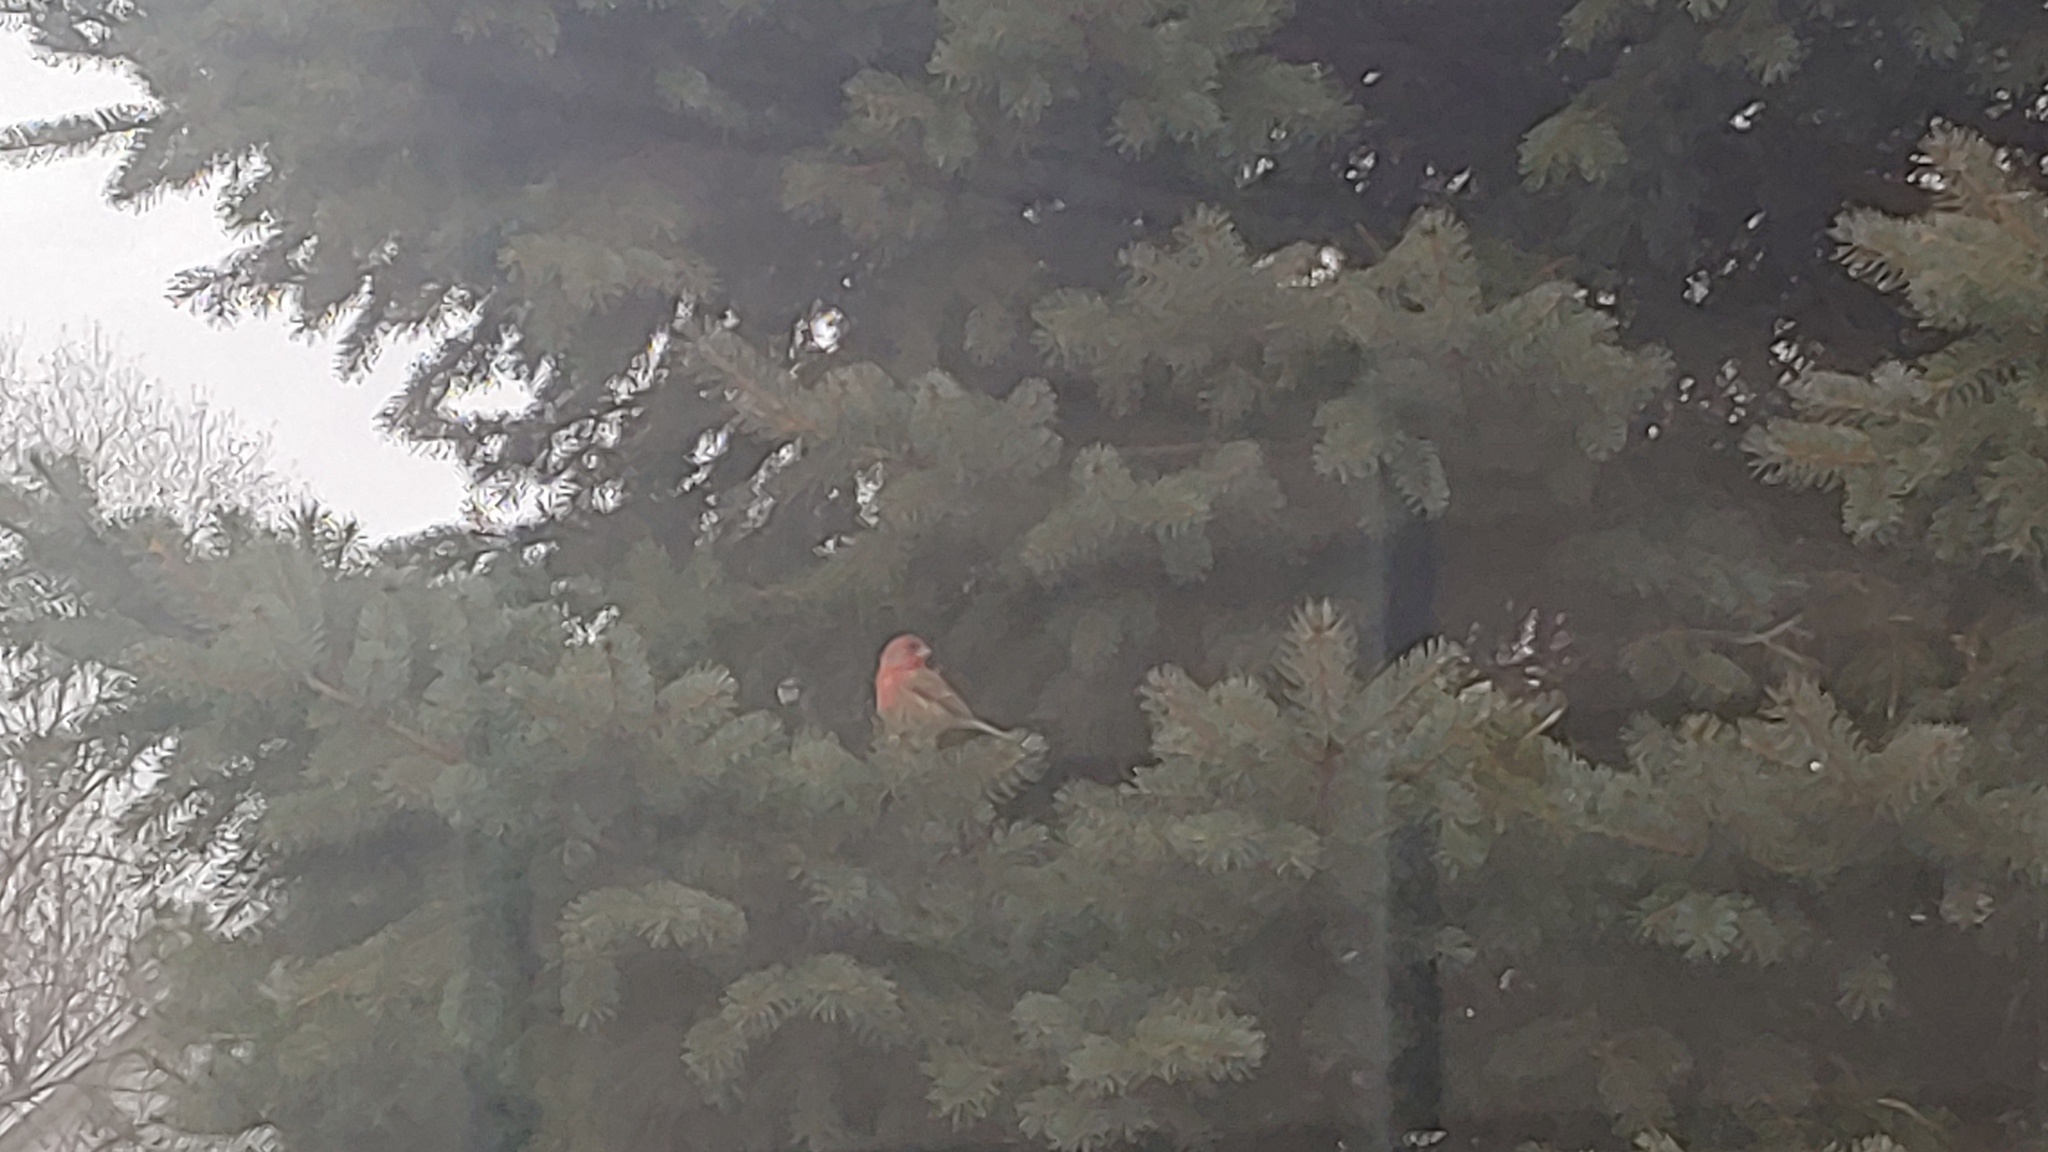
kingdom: Animalia
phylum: Chordata
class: Aves
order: Passeriformes
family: Fringillidae
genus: Haemorhous
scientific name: Haemorhous mexicanus
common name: House finch
